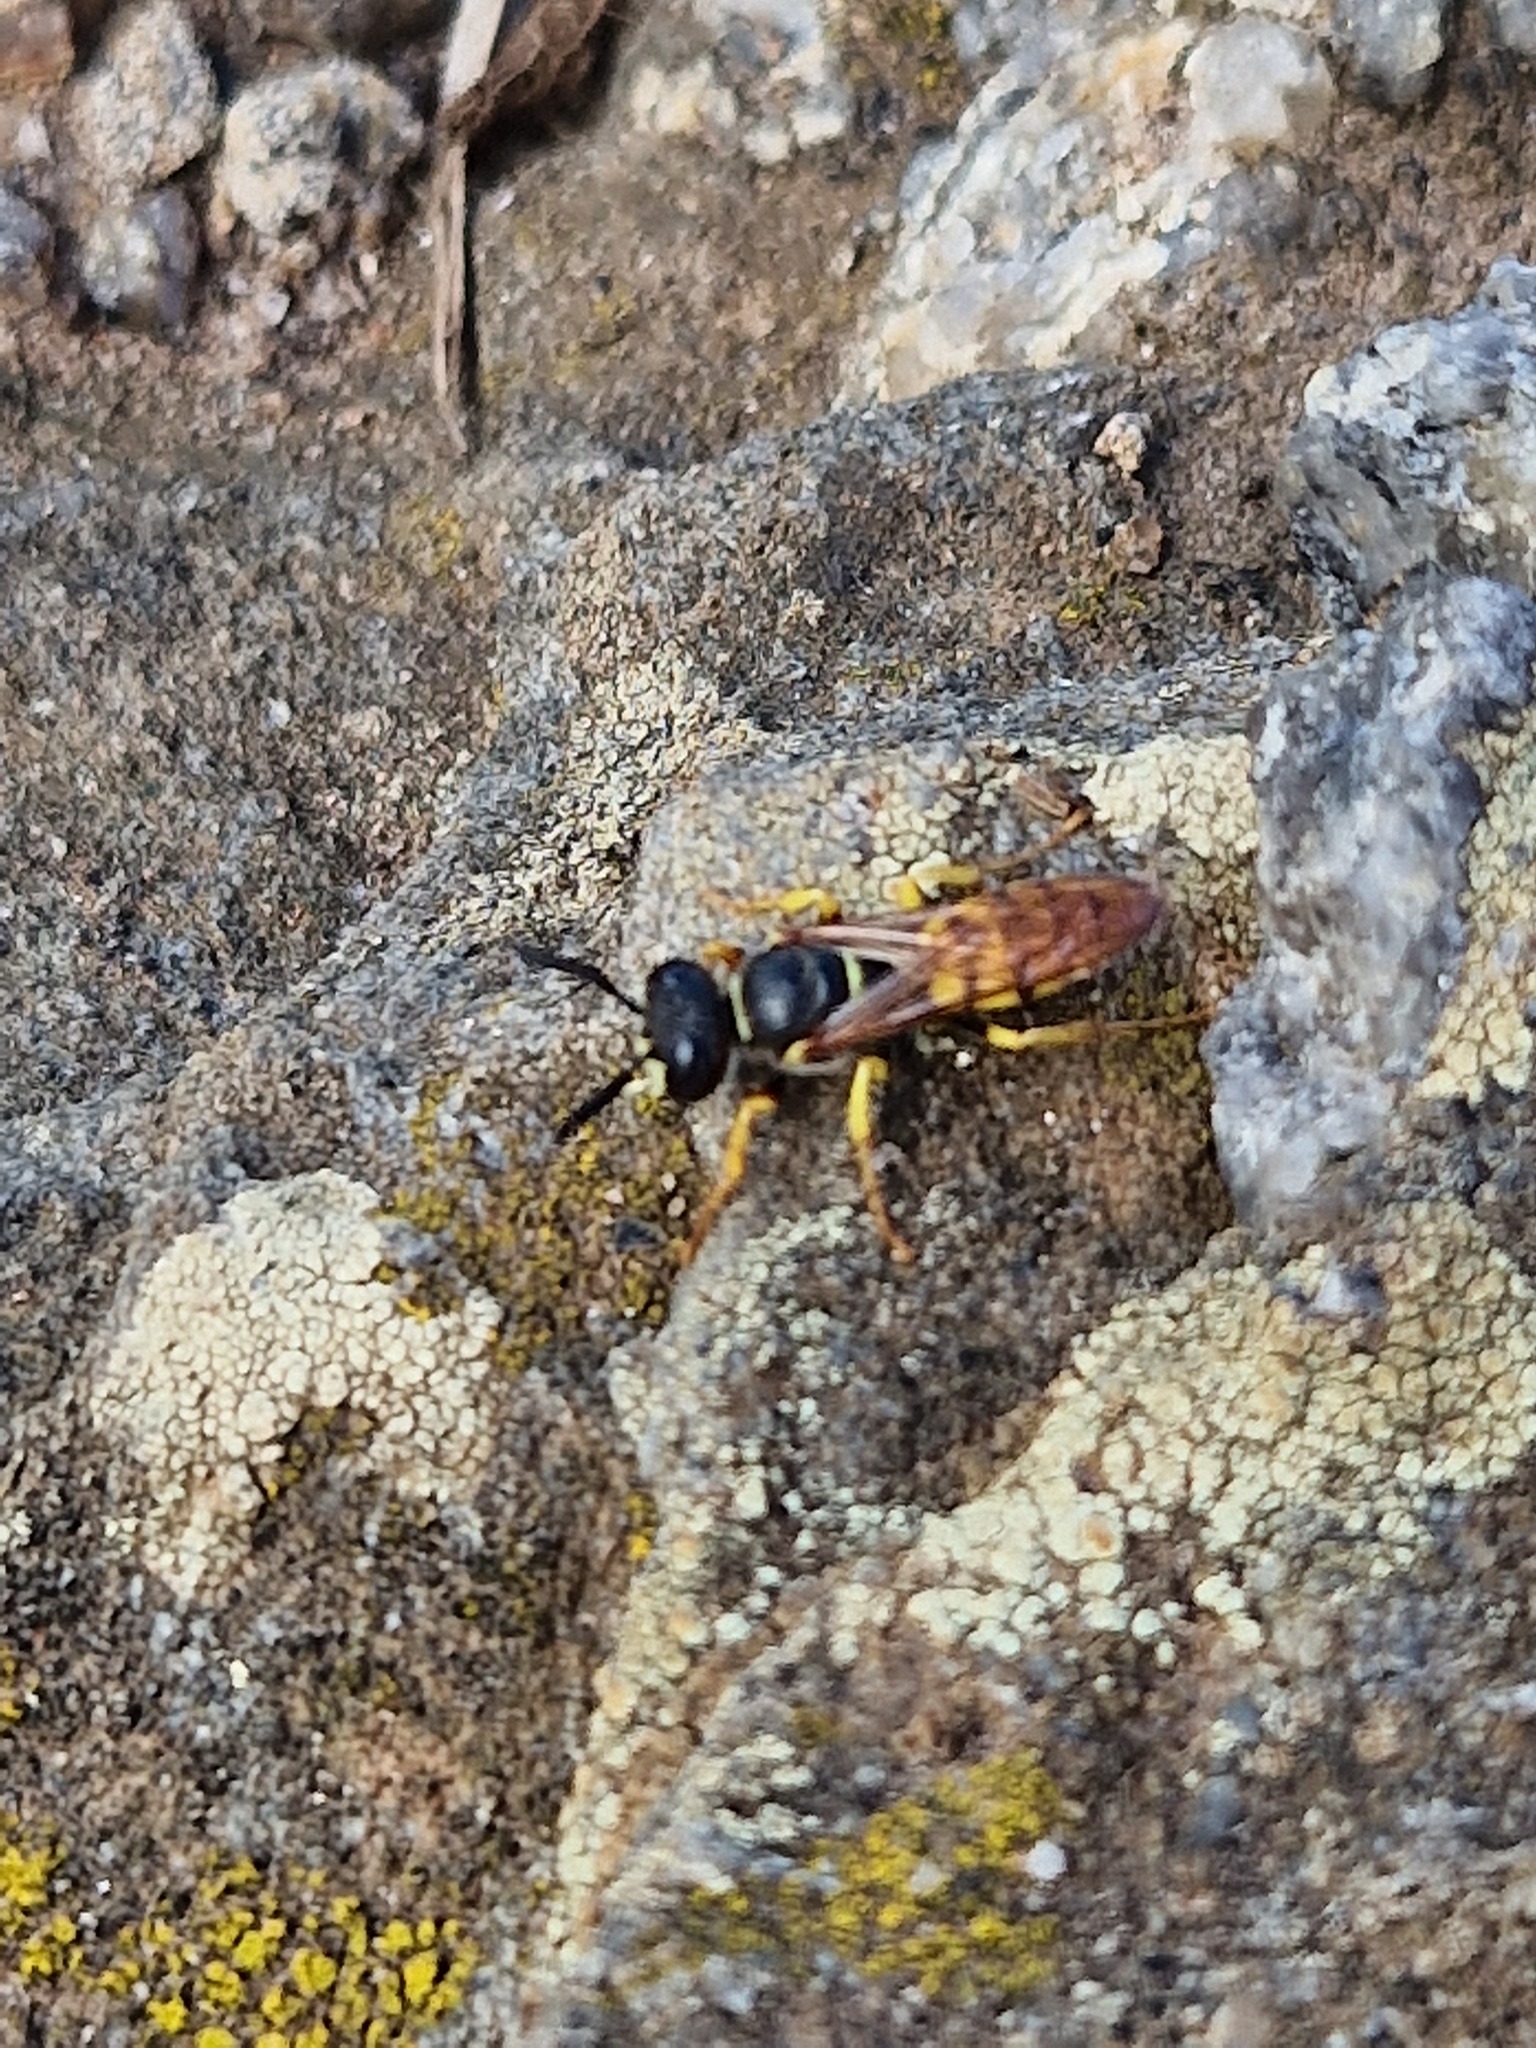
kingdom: Animalia
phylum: Arthropoda
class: Insecta
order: Hymenoptera
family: Crabronidae
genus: Philanthus
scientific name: Philanthus triangulum
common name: Bee wolf
